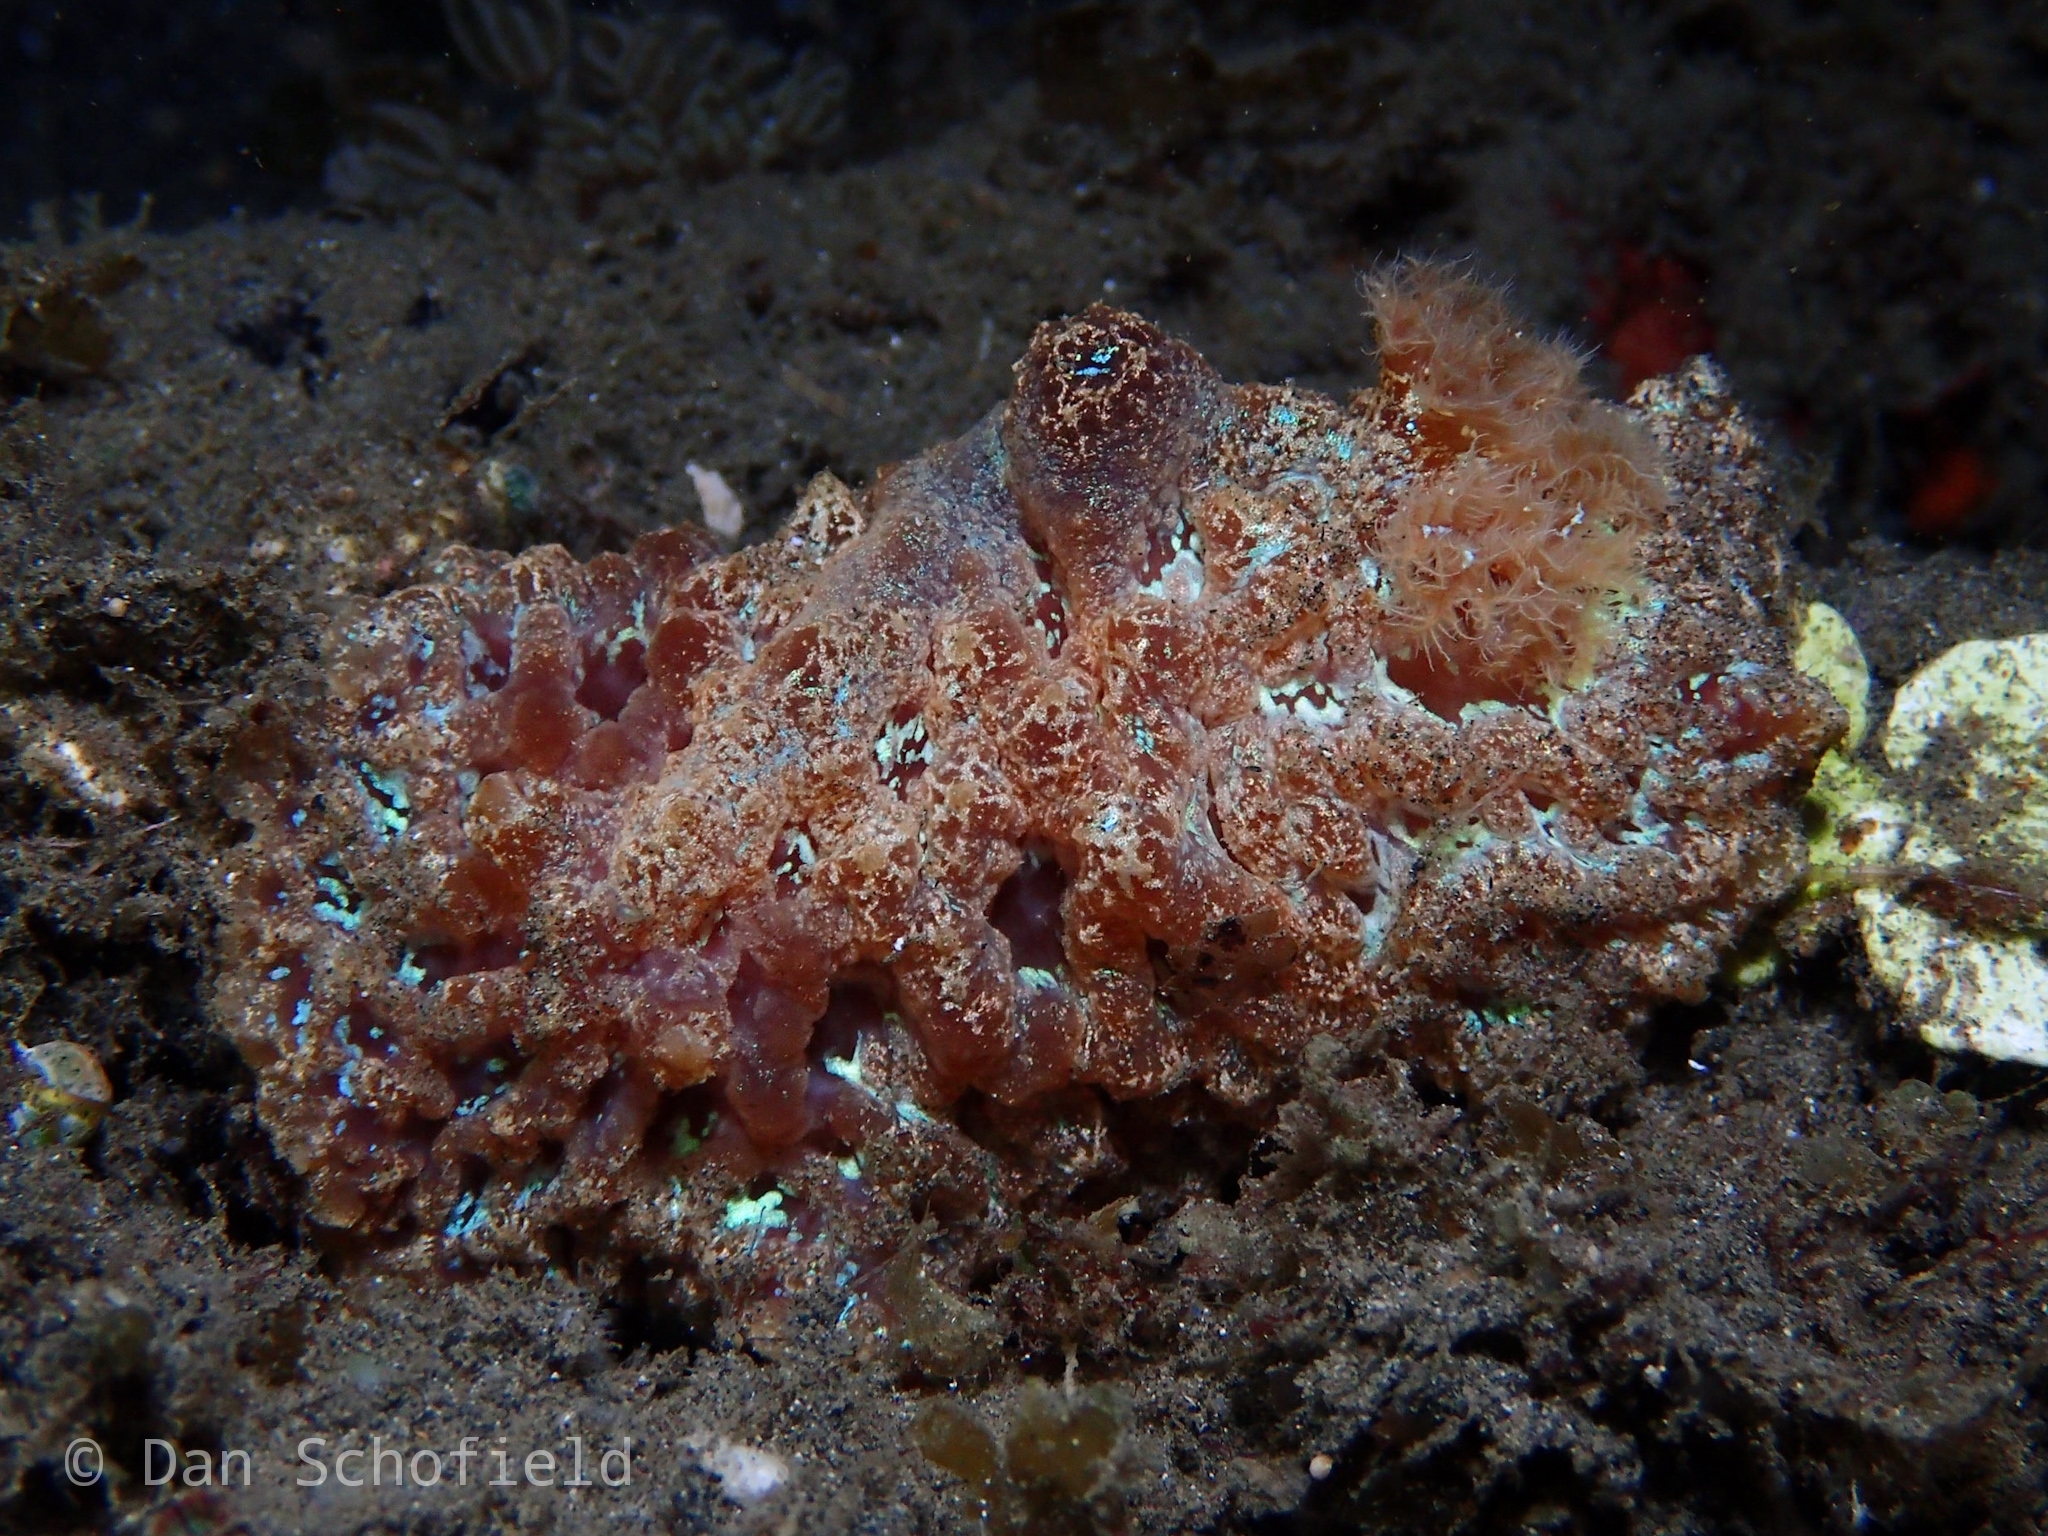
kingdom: Animalia
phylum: Mollusca
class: Gastropoda
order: Nudibranchia
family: Discodorididae
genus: Atagema
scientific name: Atagema spongiosa
